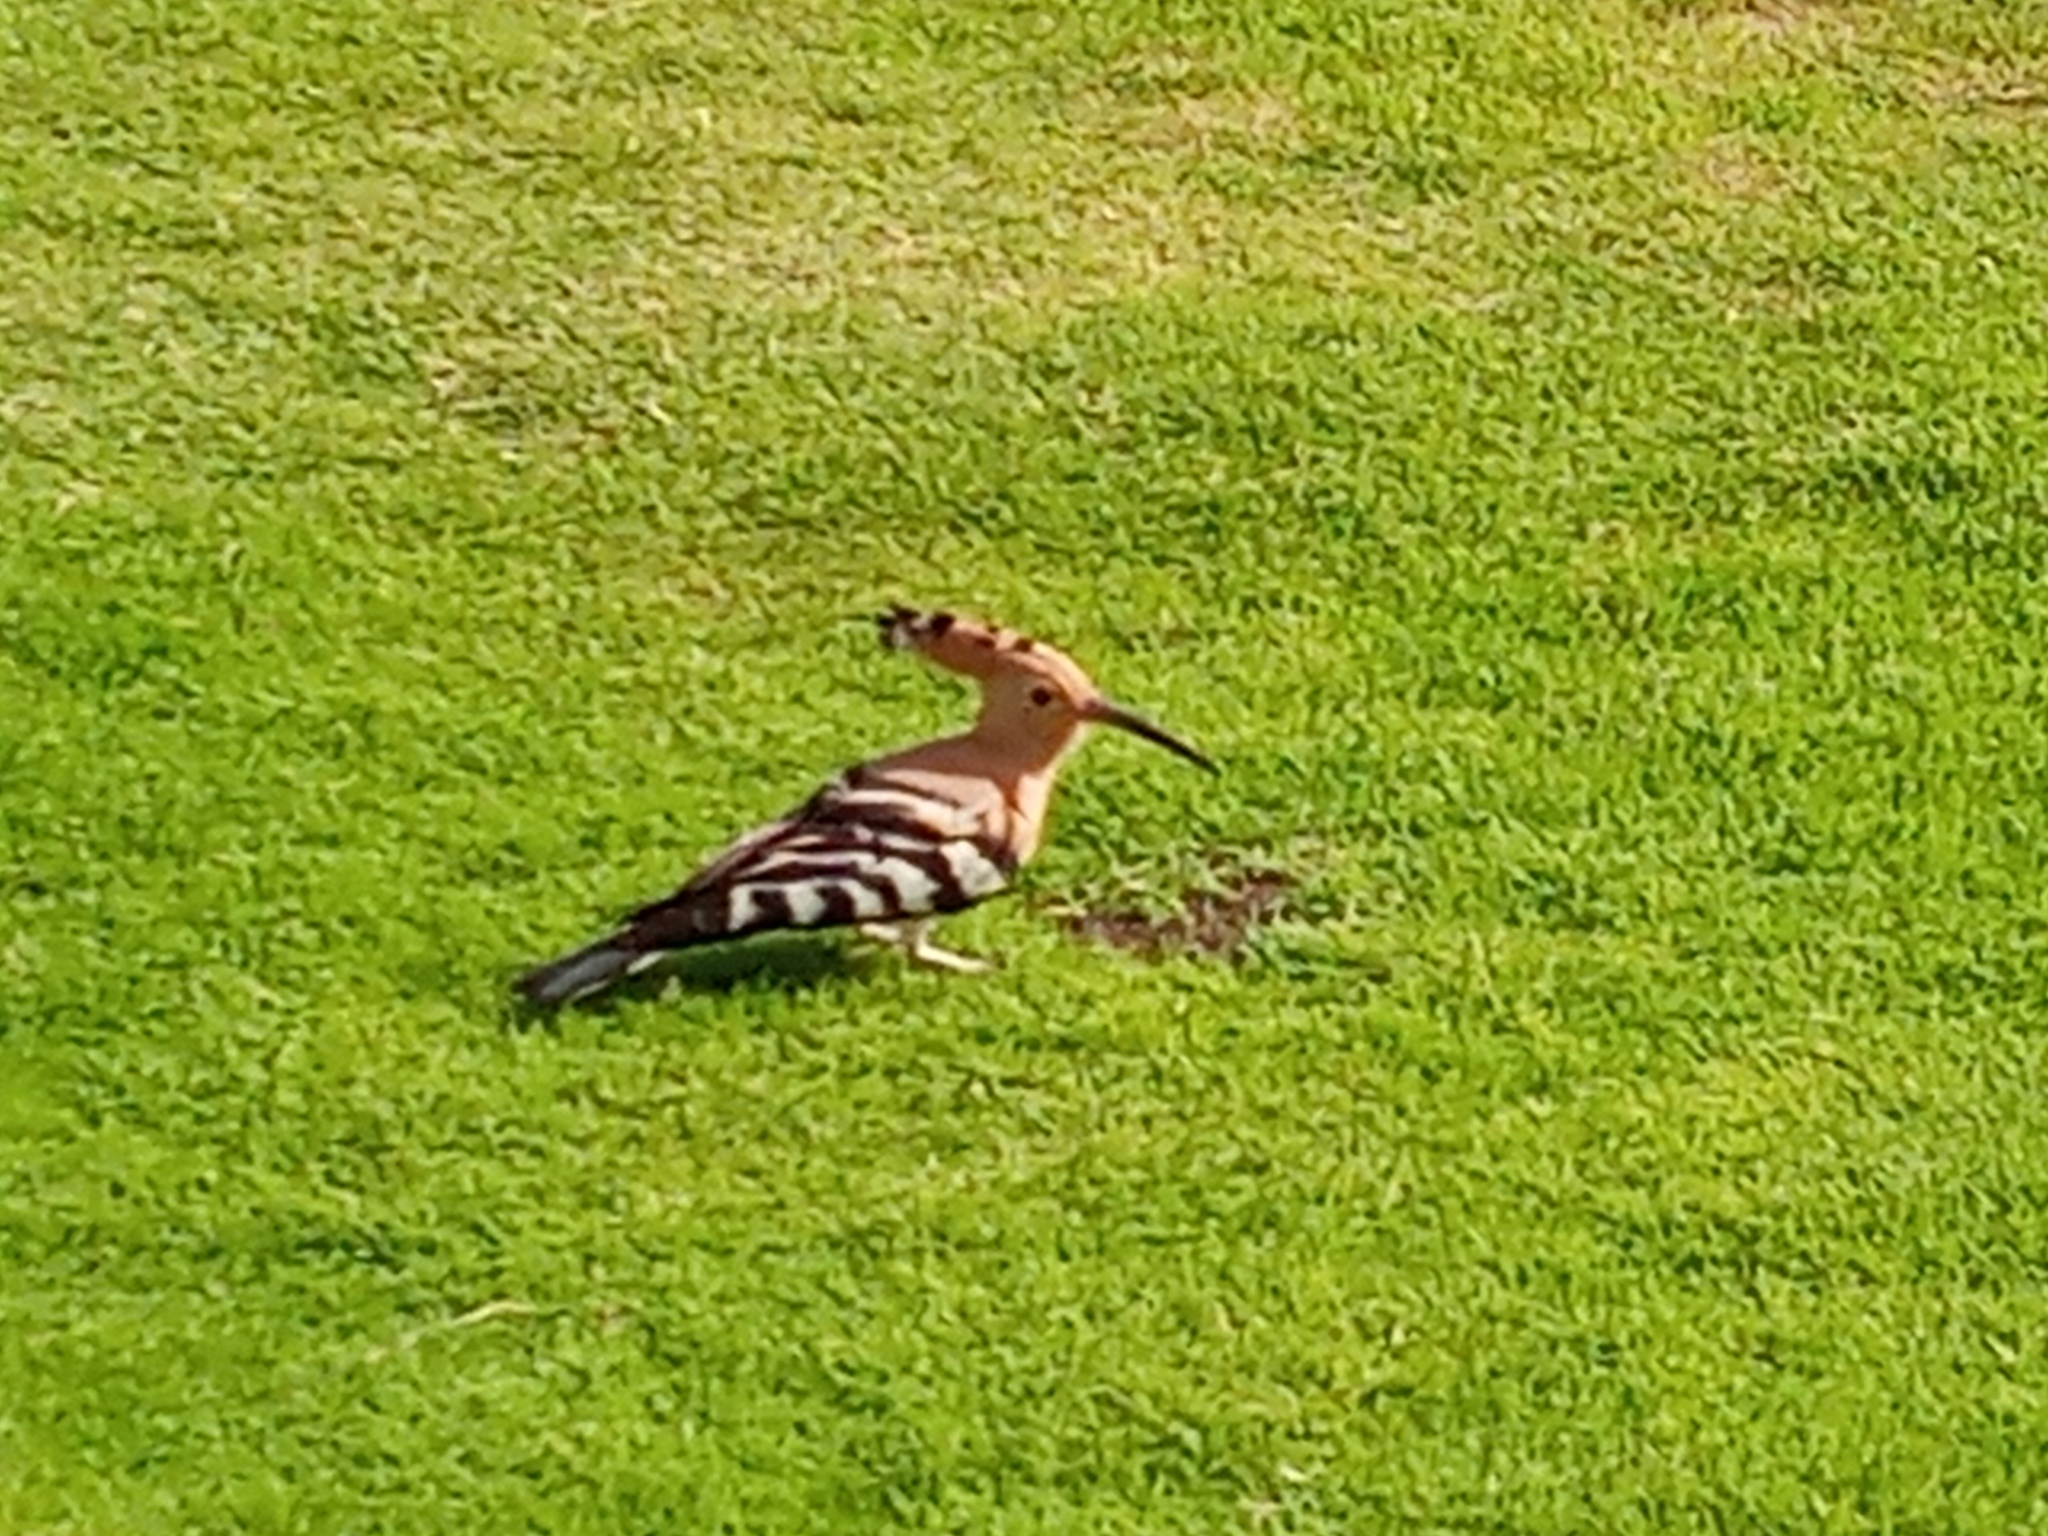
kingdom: Animalia
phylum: Chordata
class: Aves
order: Bucerotiformes
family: Upupidae
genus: Upupa
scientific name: Upupa epops
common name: Eurasian hoopoe
